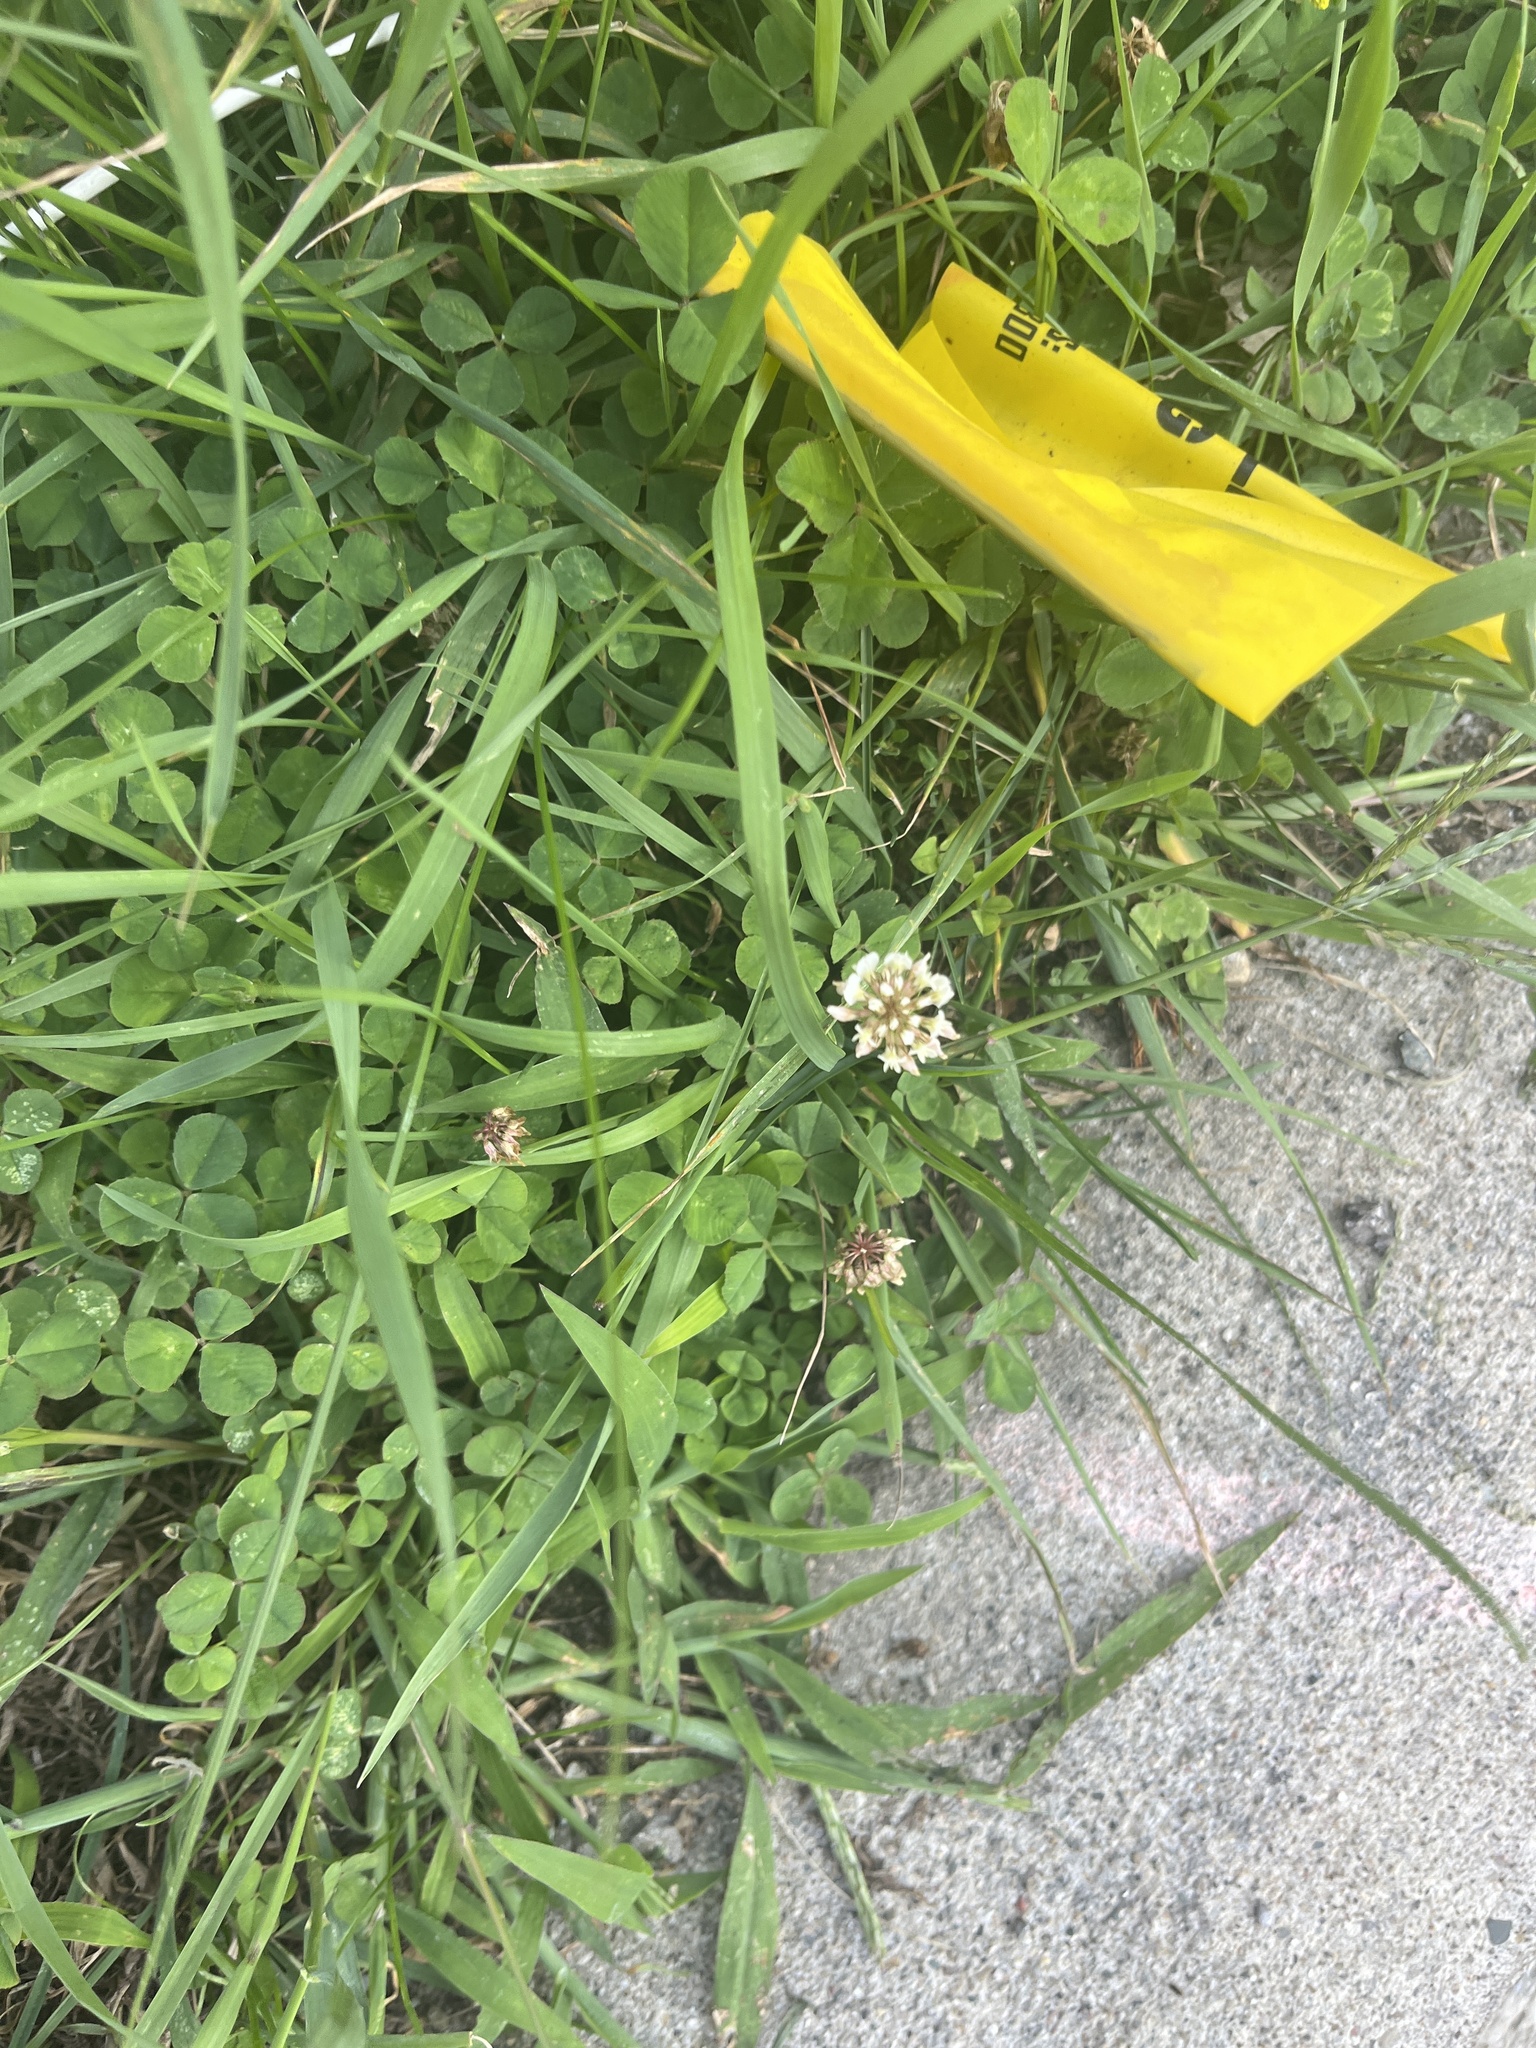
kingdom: Plantae
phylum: Tracheophyta
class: Magnoliopsida
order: Fabales
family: Fabaceae
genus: Trifolium
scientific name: Trifolium repens
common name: White clover
